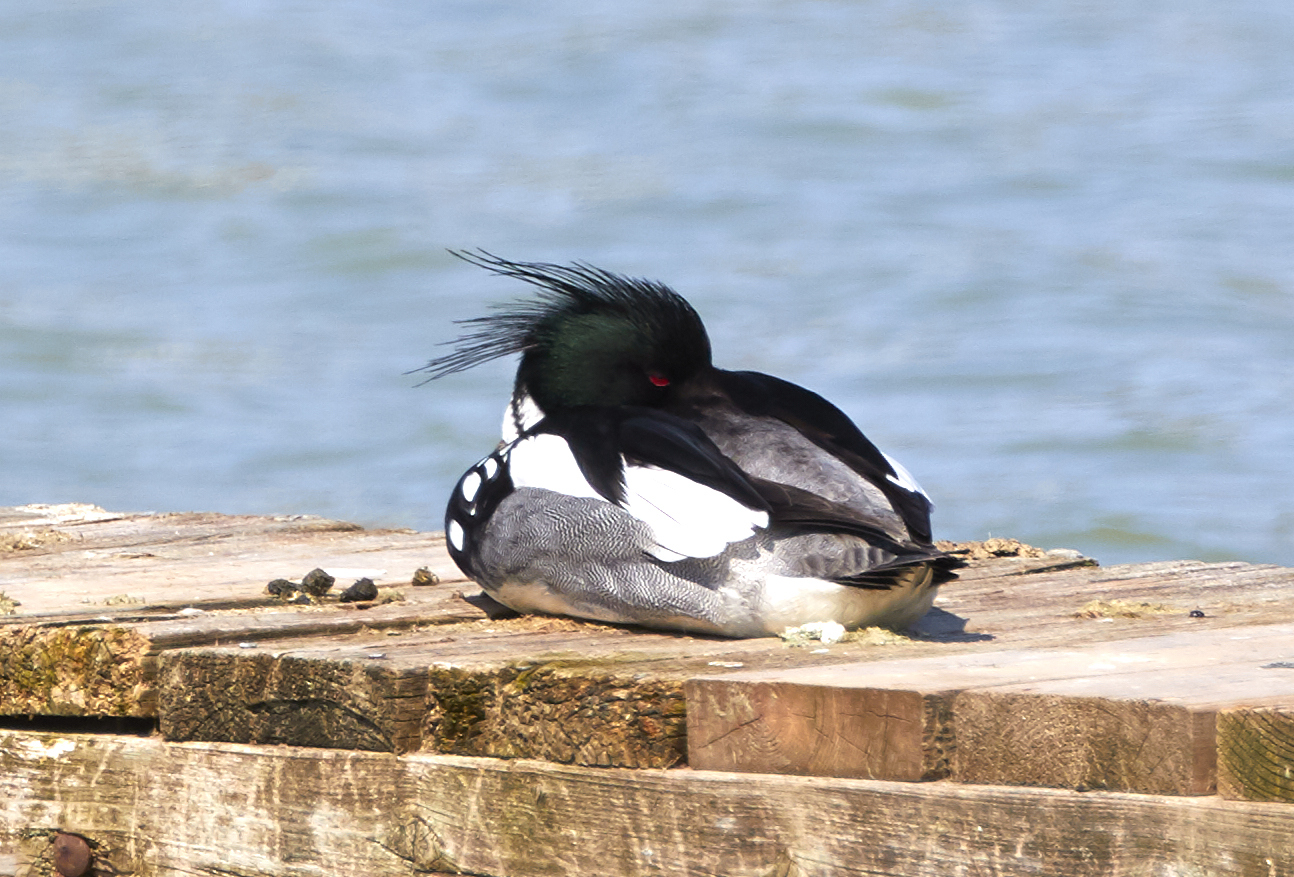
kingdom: Animalia
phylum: Chordata
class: Aves
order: Anseriformes
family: Anatidae
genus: Mergus
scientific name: Mergus serrator
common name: Red-breasted merganser
